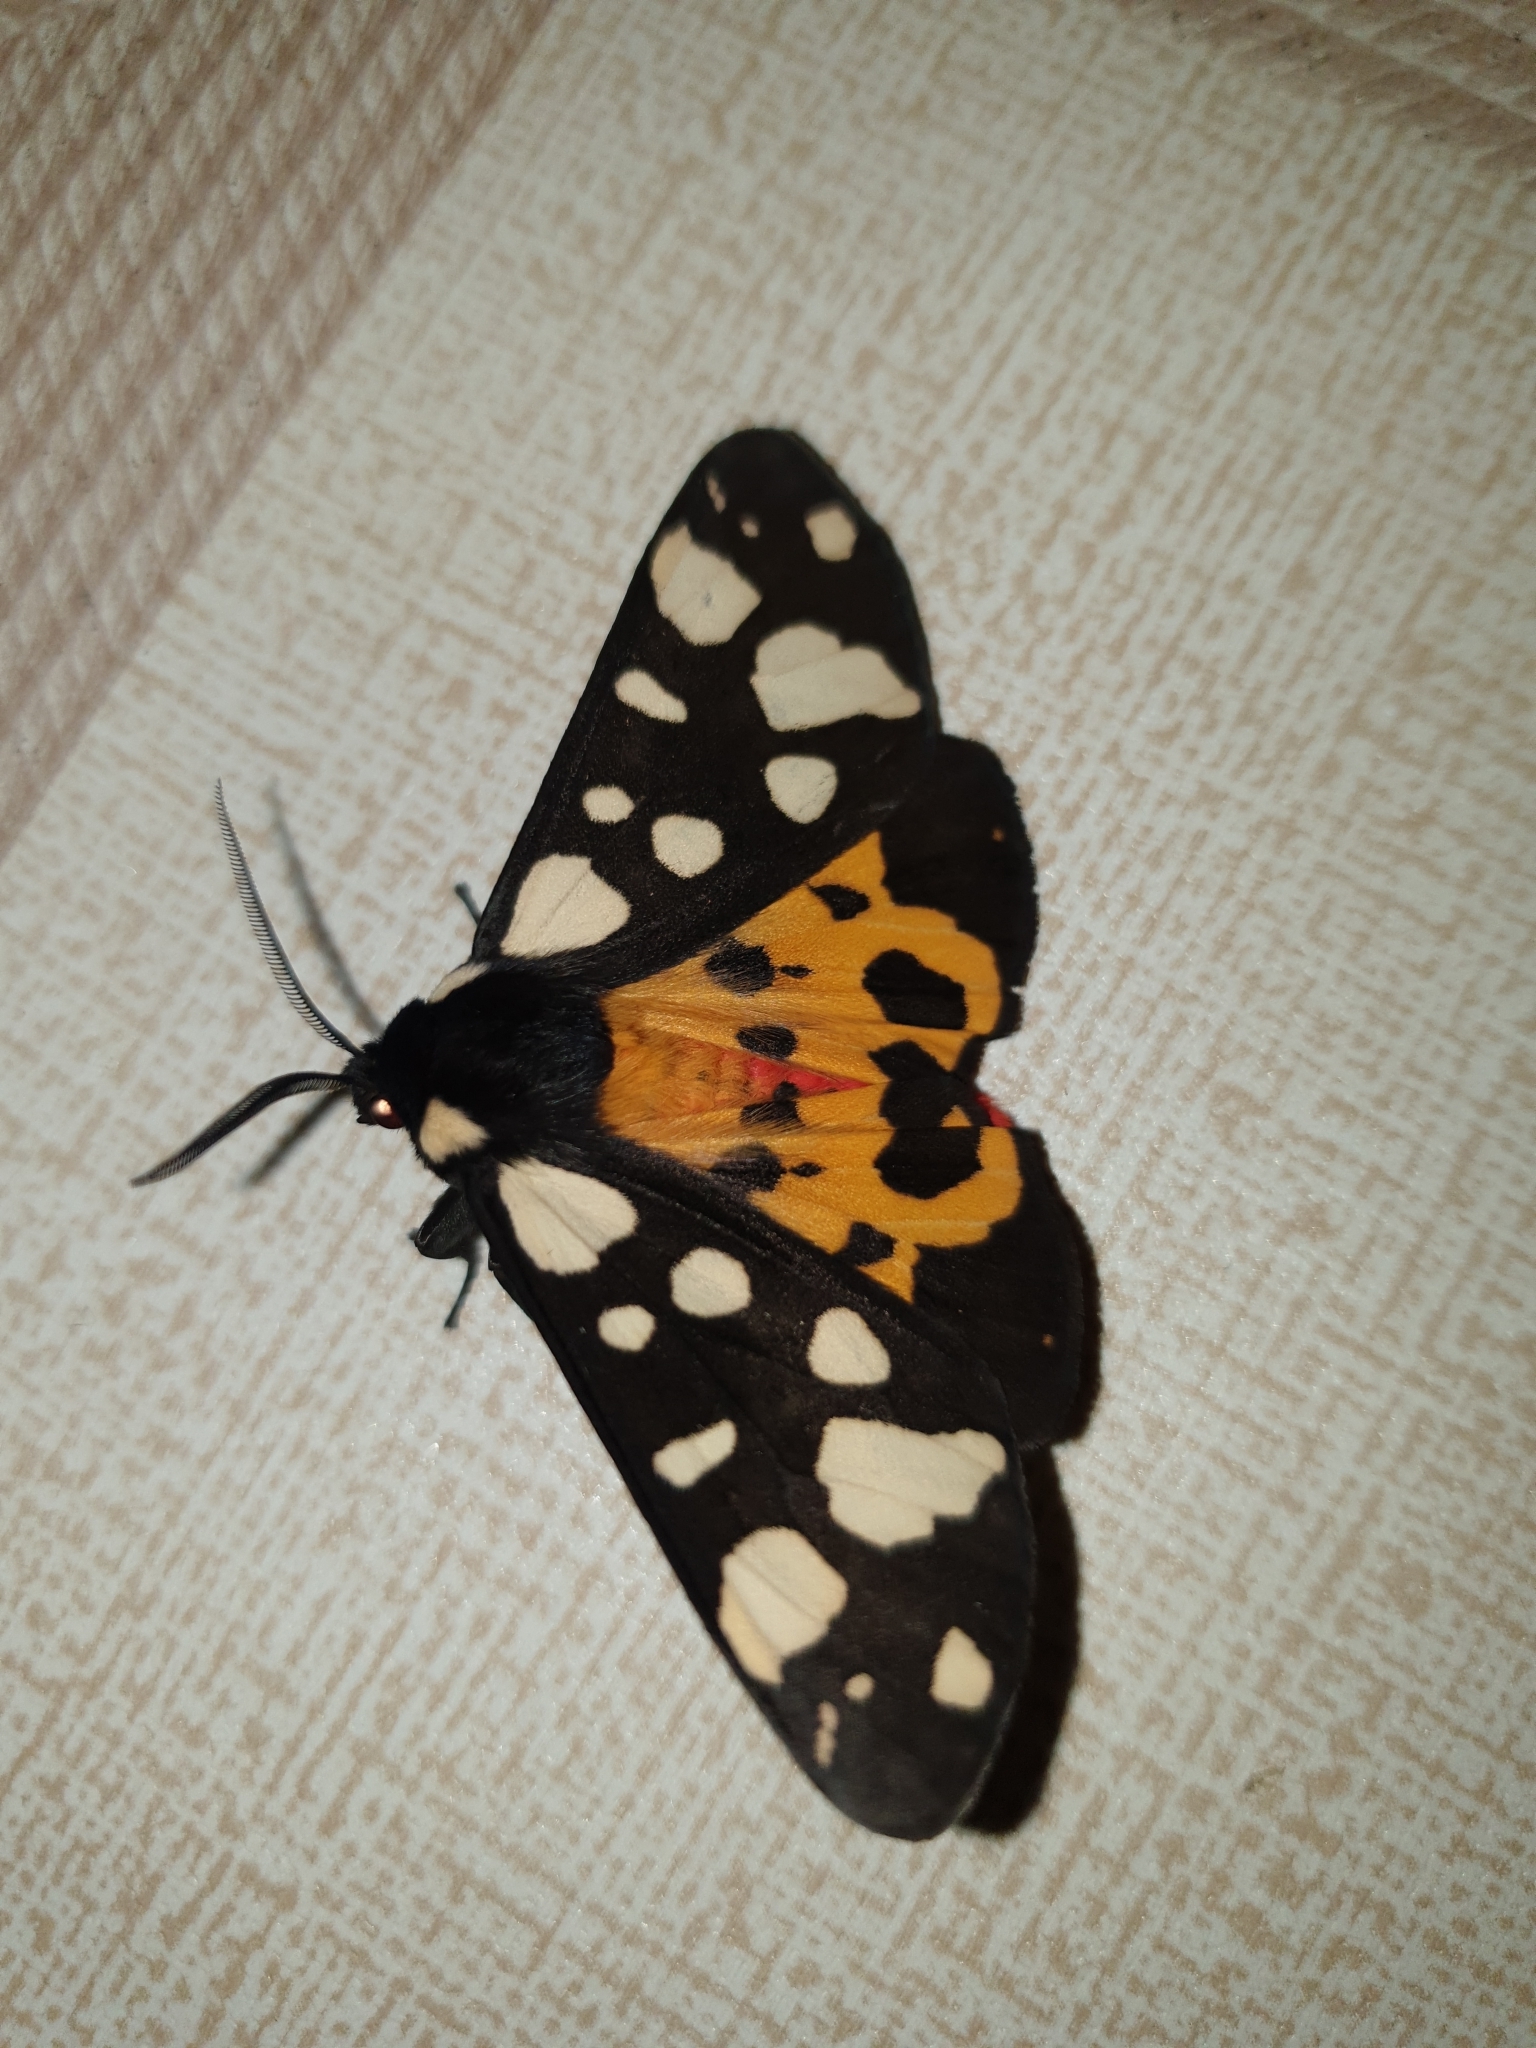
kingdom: Animalia
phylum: Arthropoda
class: Insecta
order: Lepidoptera
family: Erebidae
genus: Epicallia
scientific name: Epicallia villica
